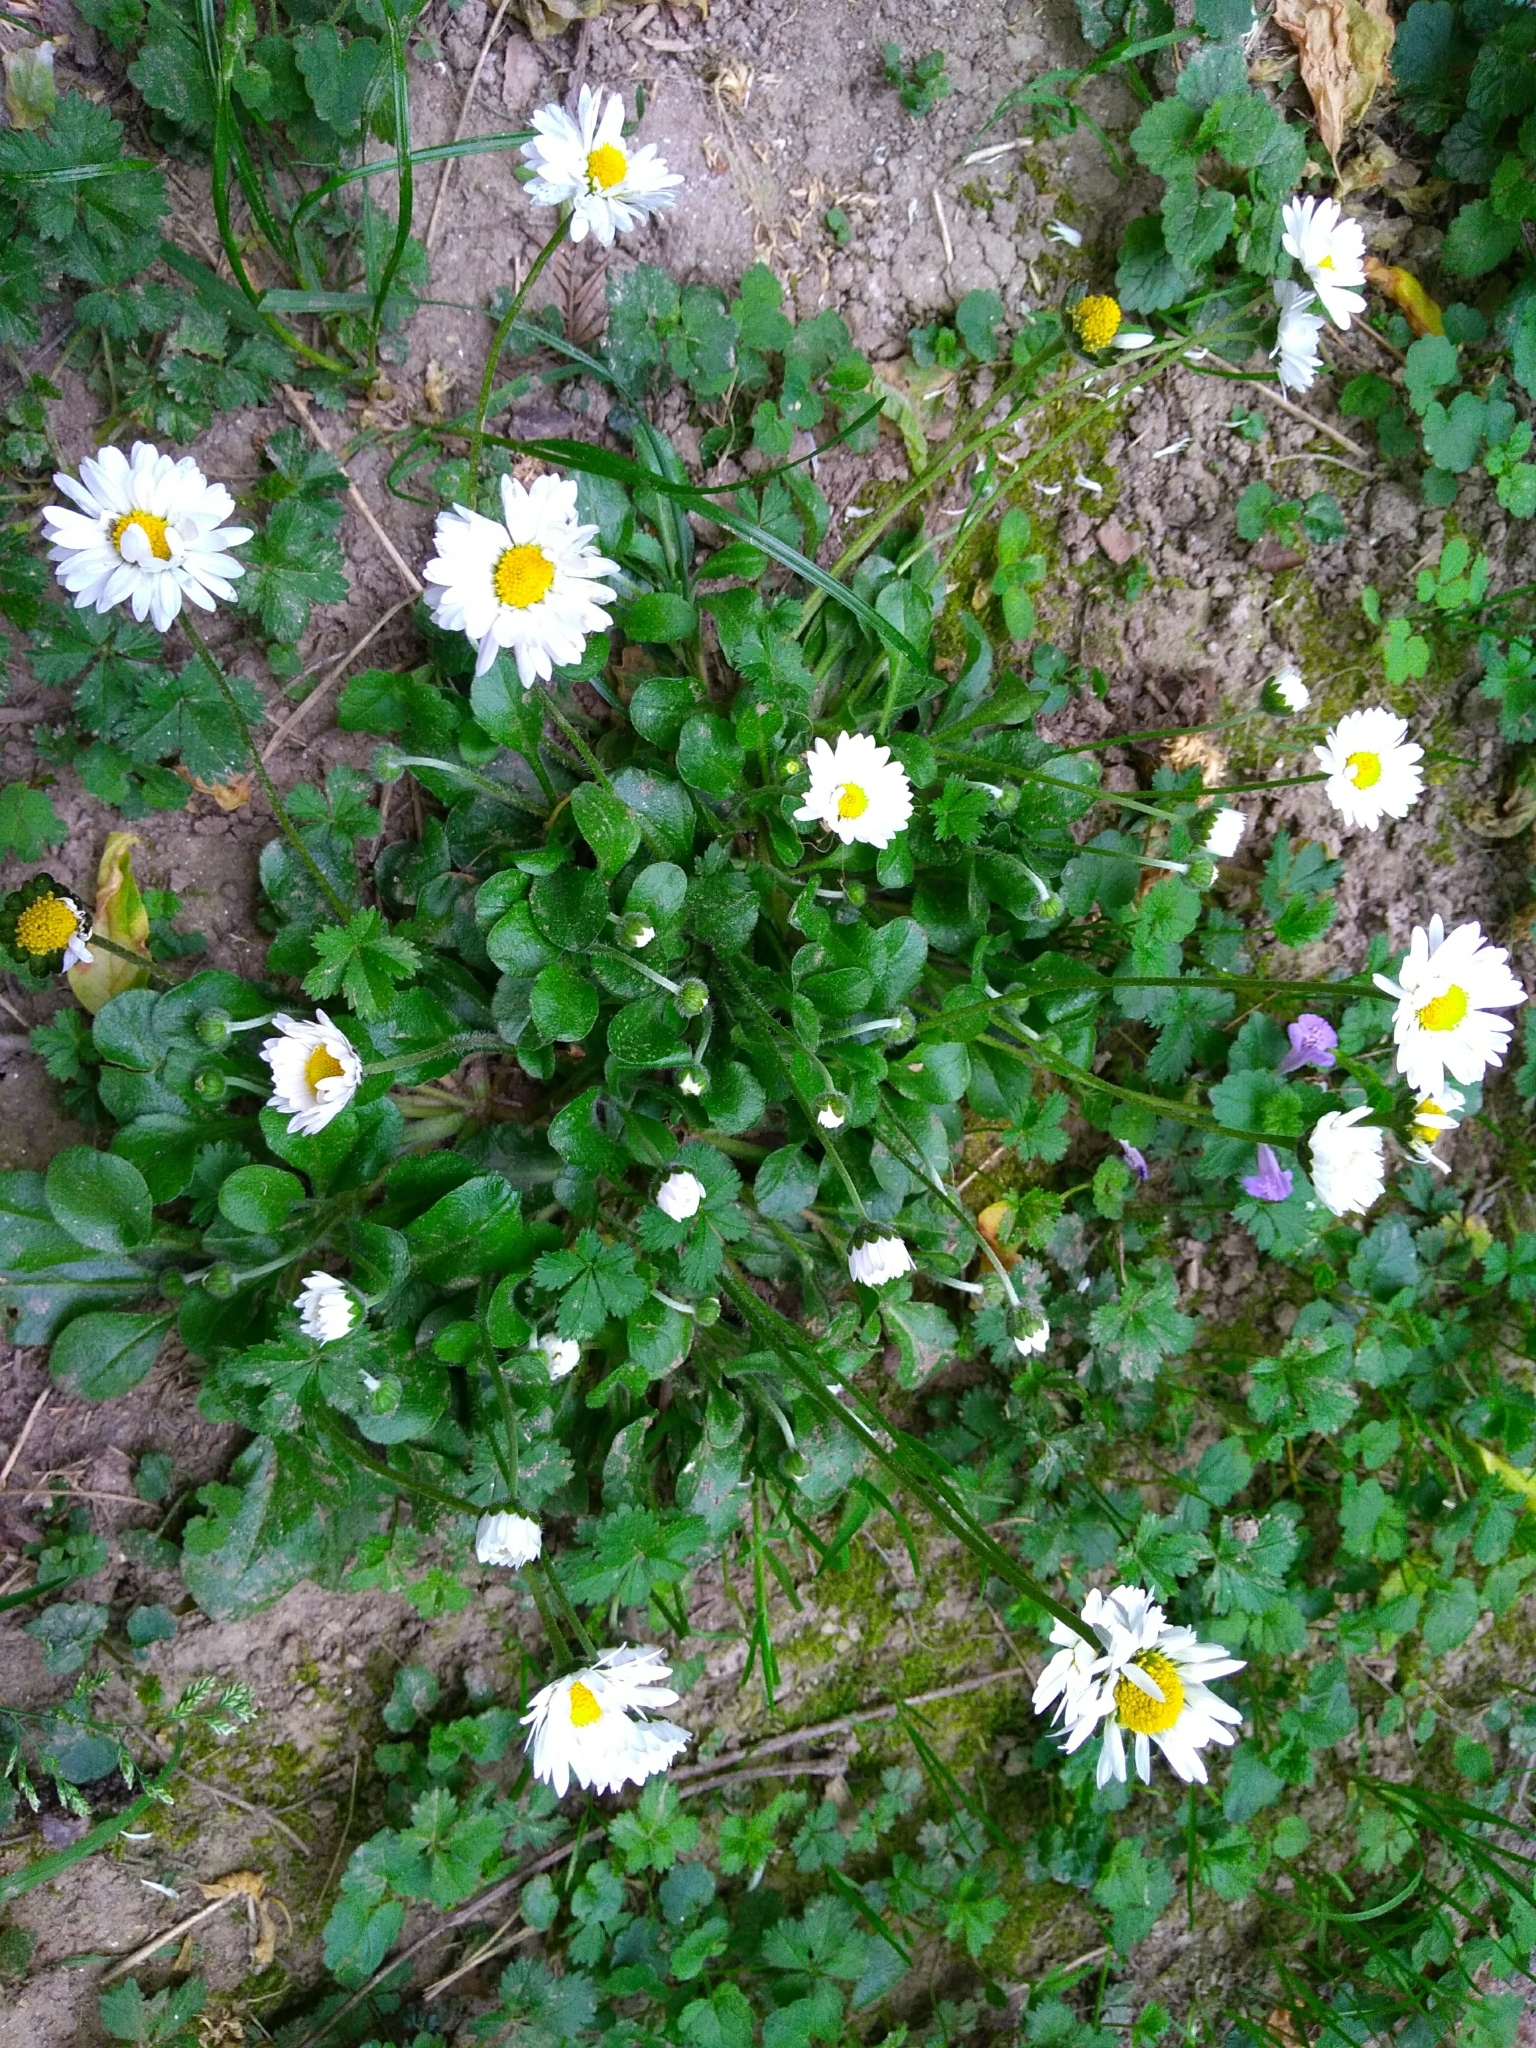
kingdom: Plantae
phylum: Tracheophyta
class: Magnoliopsida
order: Asterales
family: Asteraceae
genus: Bellis
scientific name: Bellis perennis
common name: Lawndaisy
